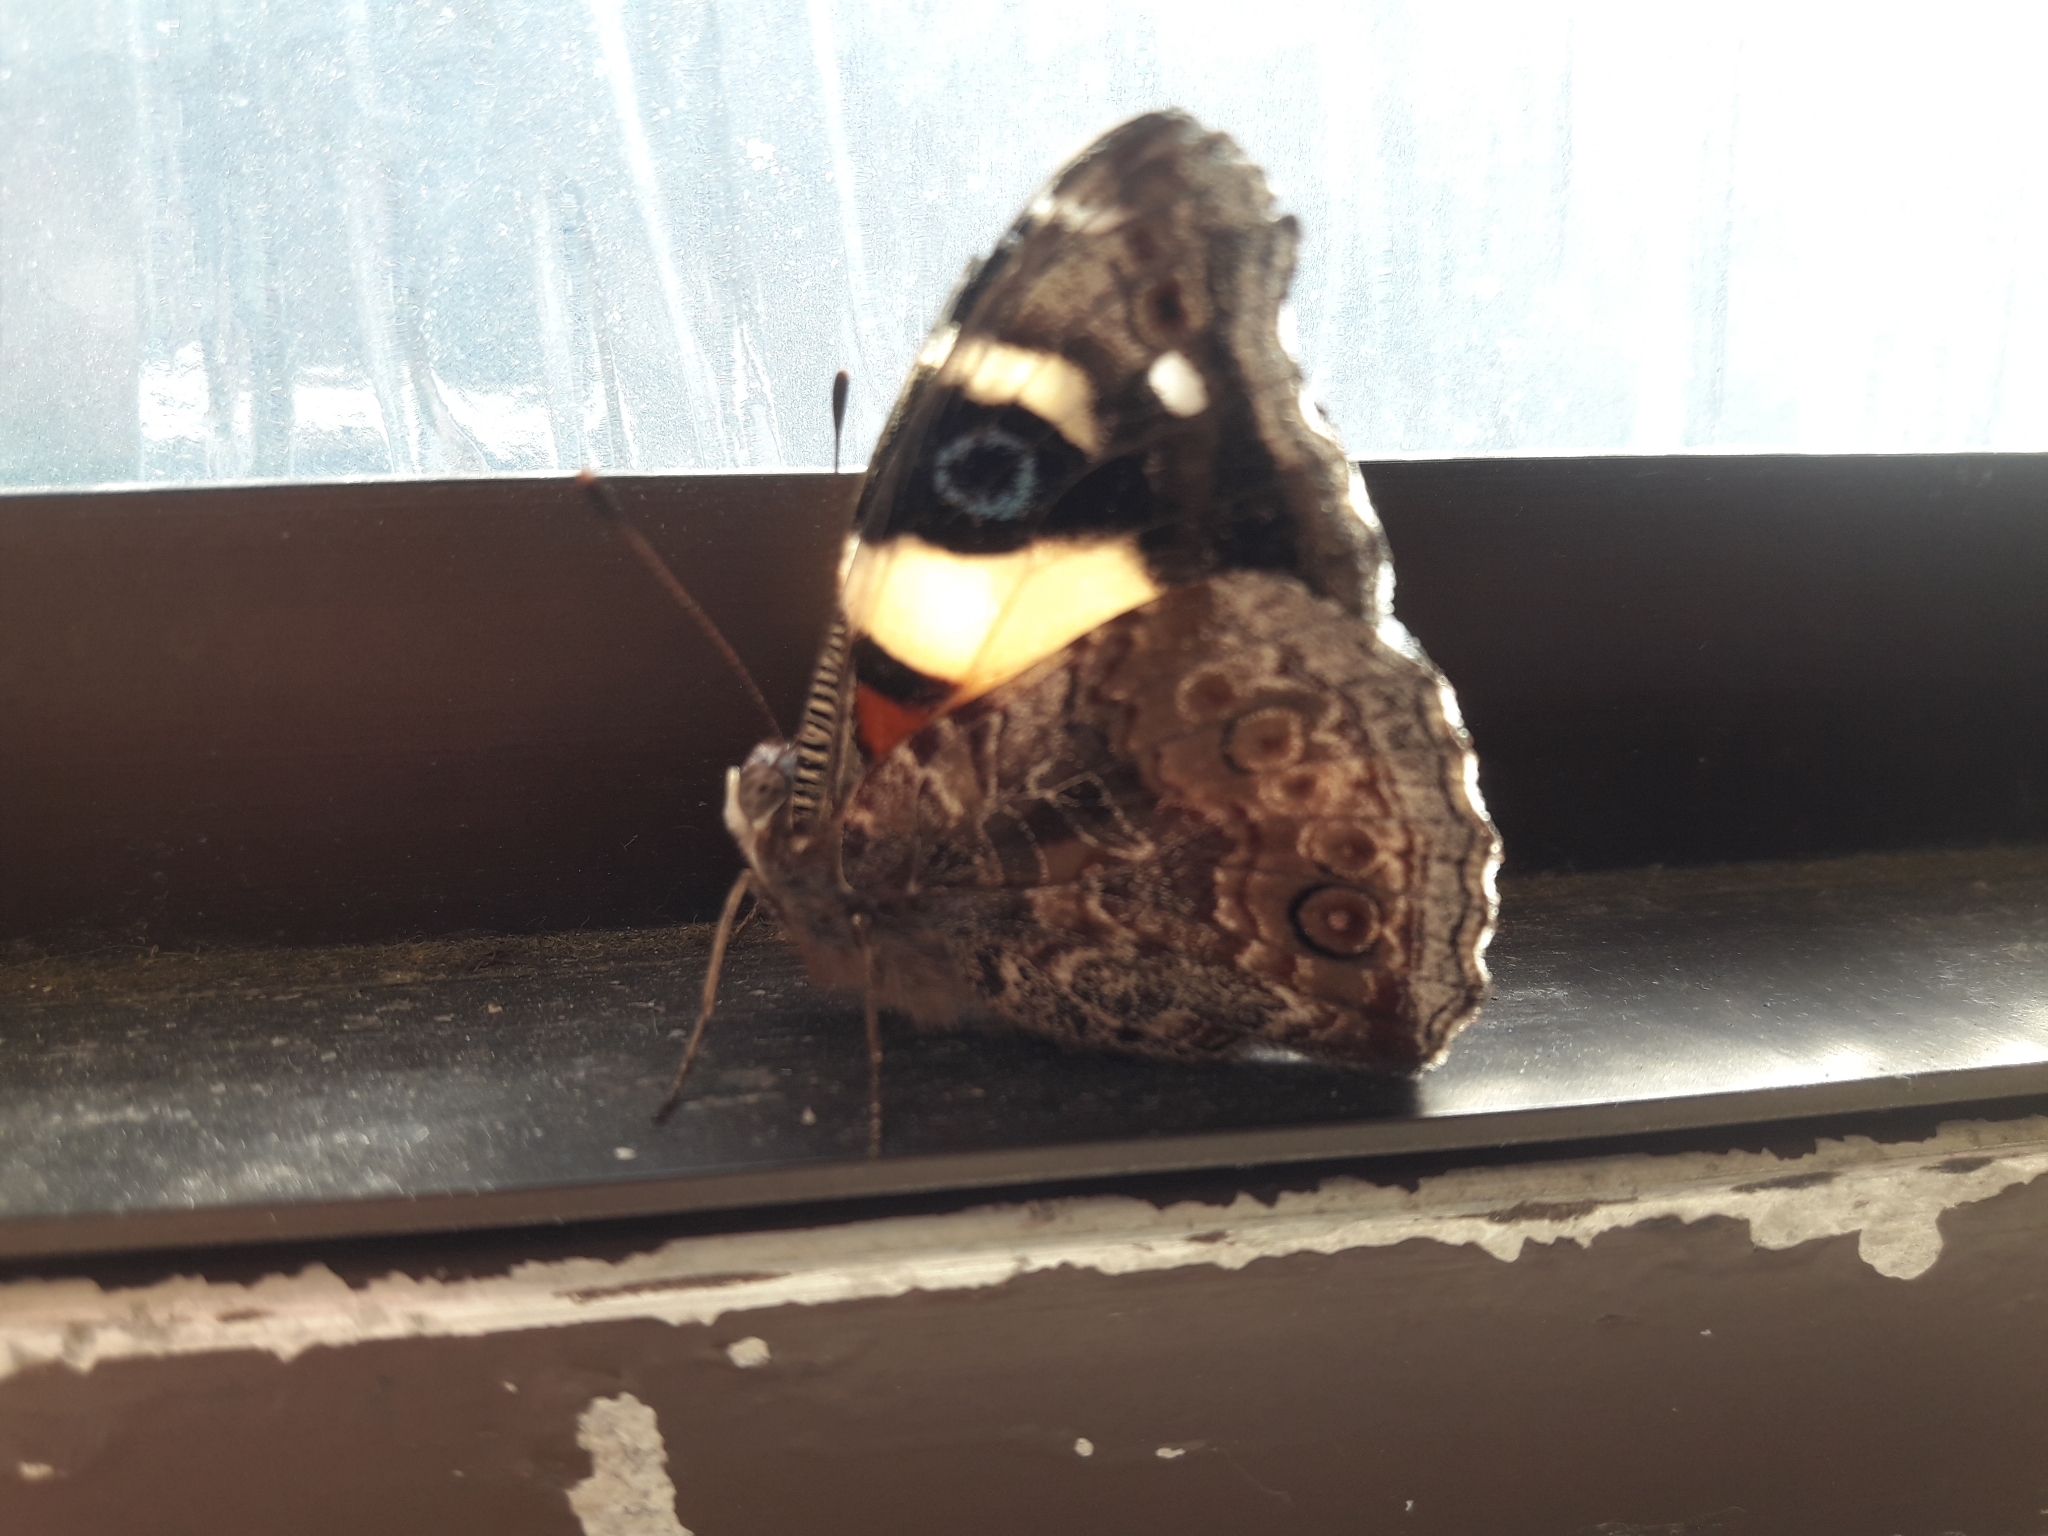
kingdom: Animalia
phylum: Arthropoda
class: Insecta
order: Lepidoptera
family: Nymphalidae
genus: Vanessa
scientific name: Vanessa itea
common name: Yellow admiral
